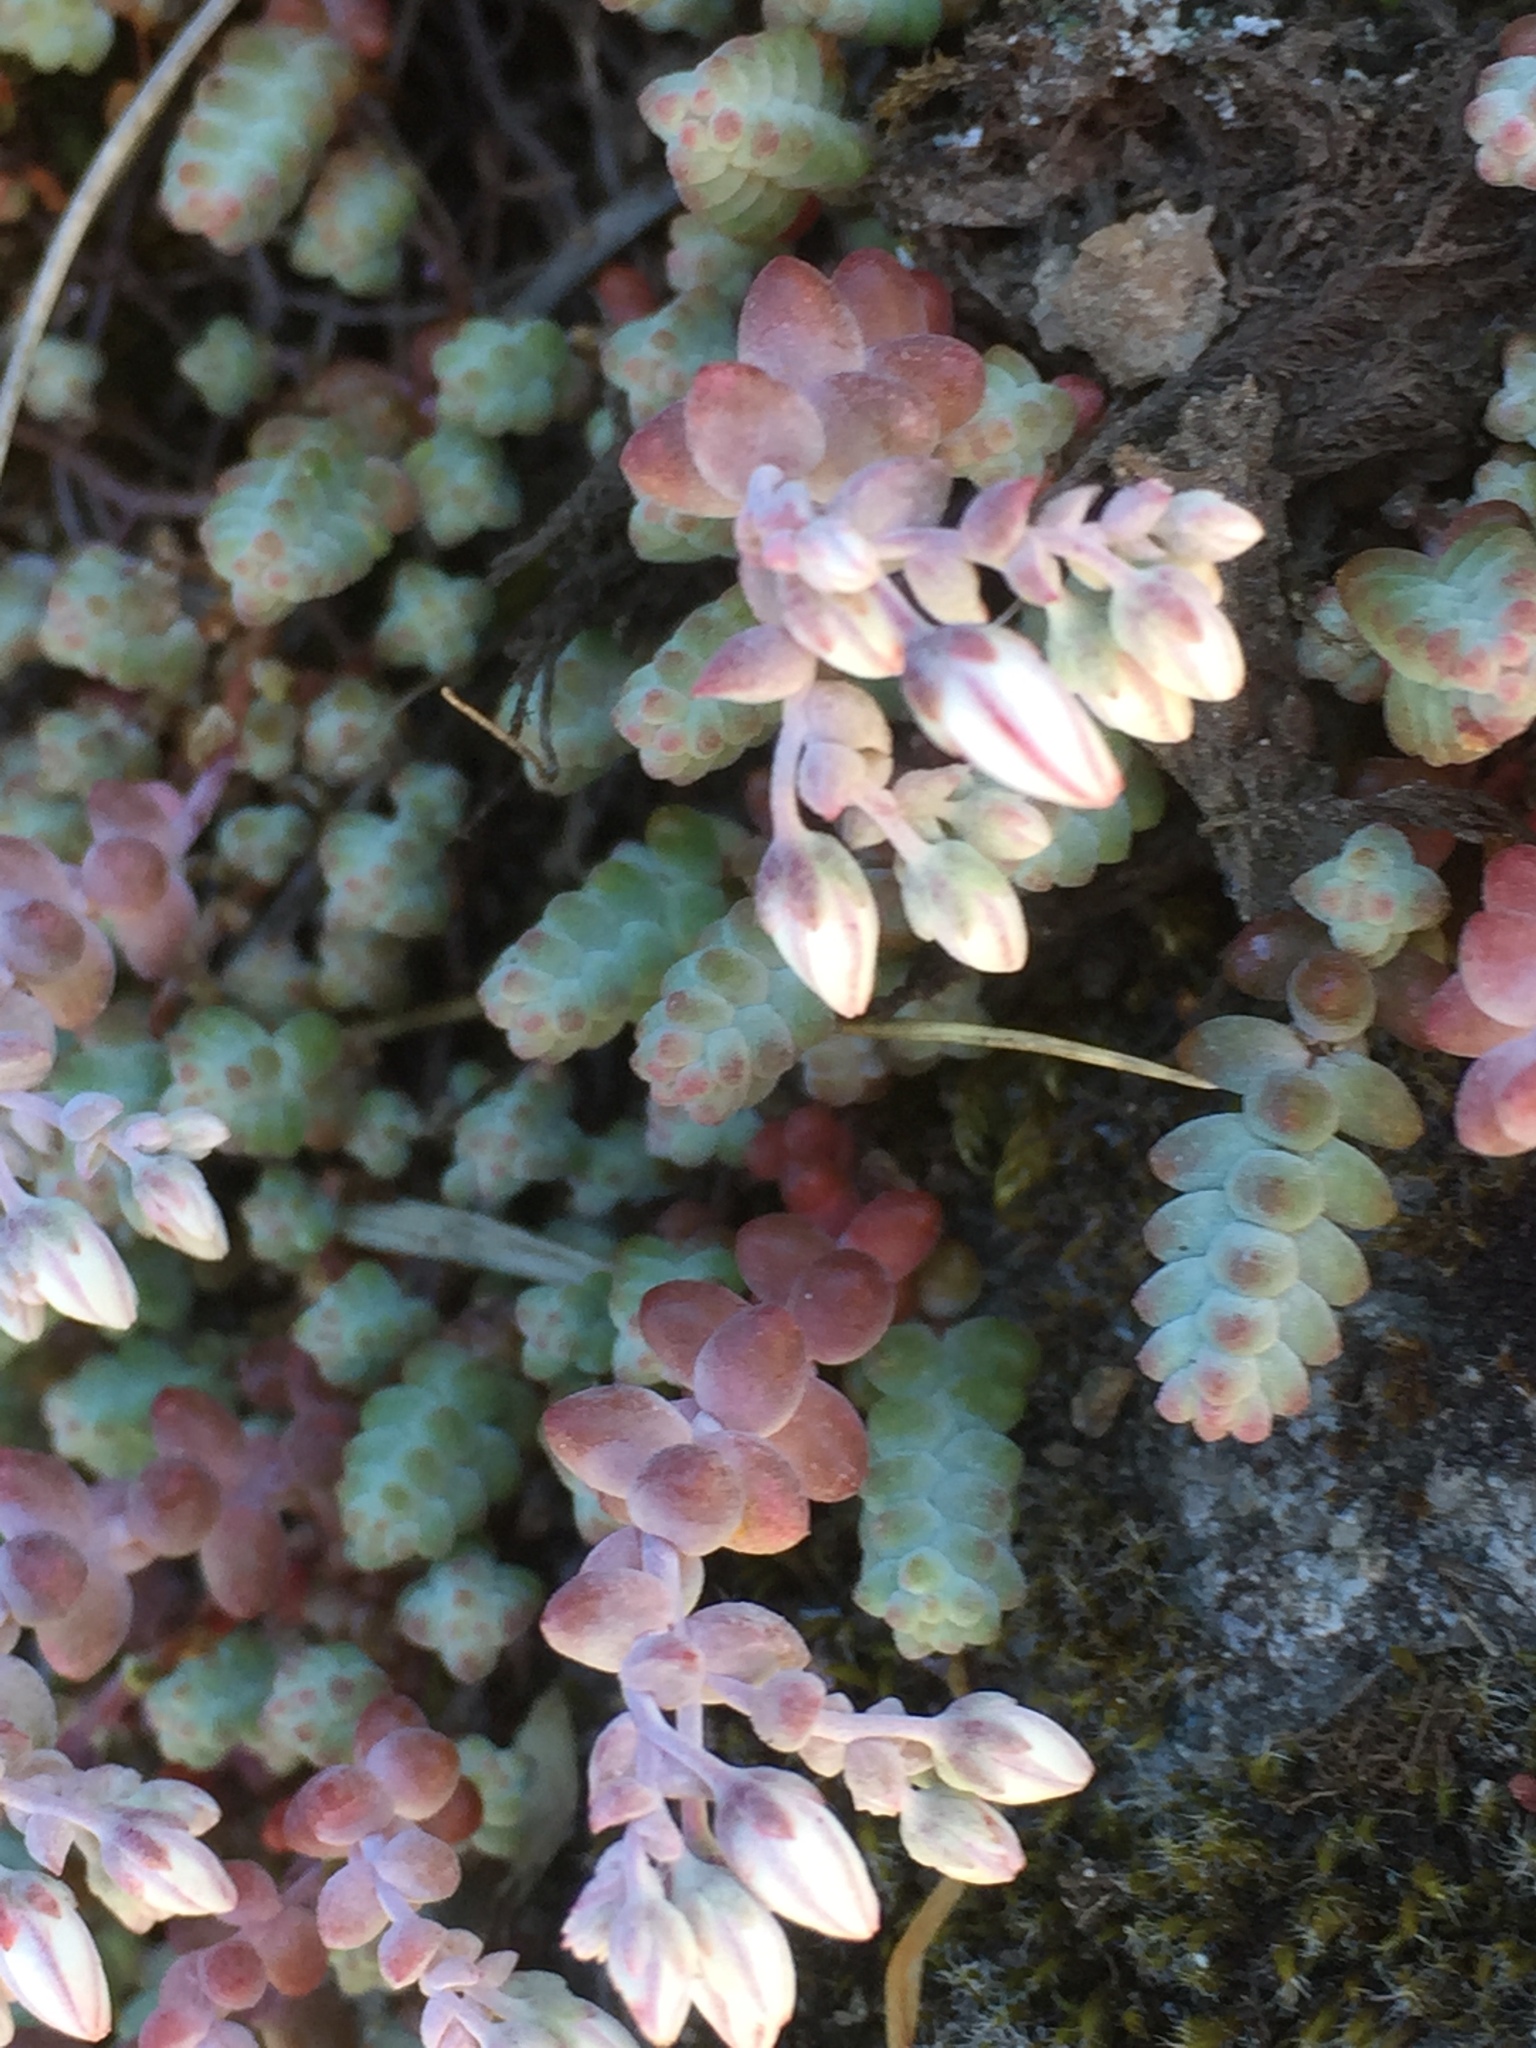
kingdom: Plantae
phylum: Tracheophyta
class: Magnoliopsida
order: Saxifragales
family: Crassulaceae
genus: Sedum
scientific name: Sedum brevifolium
